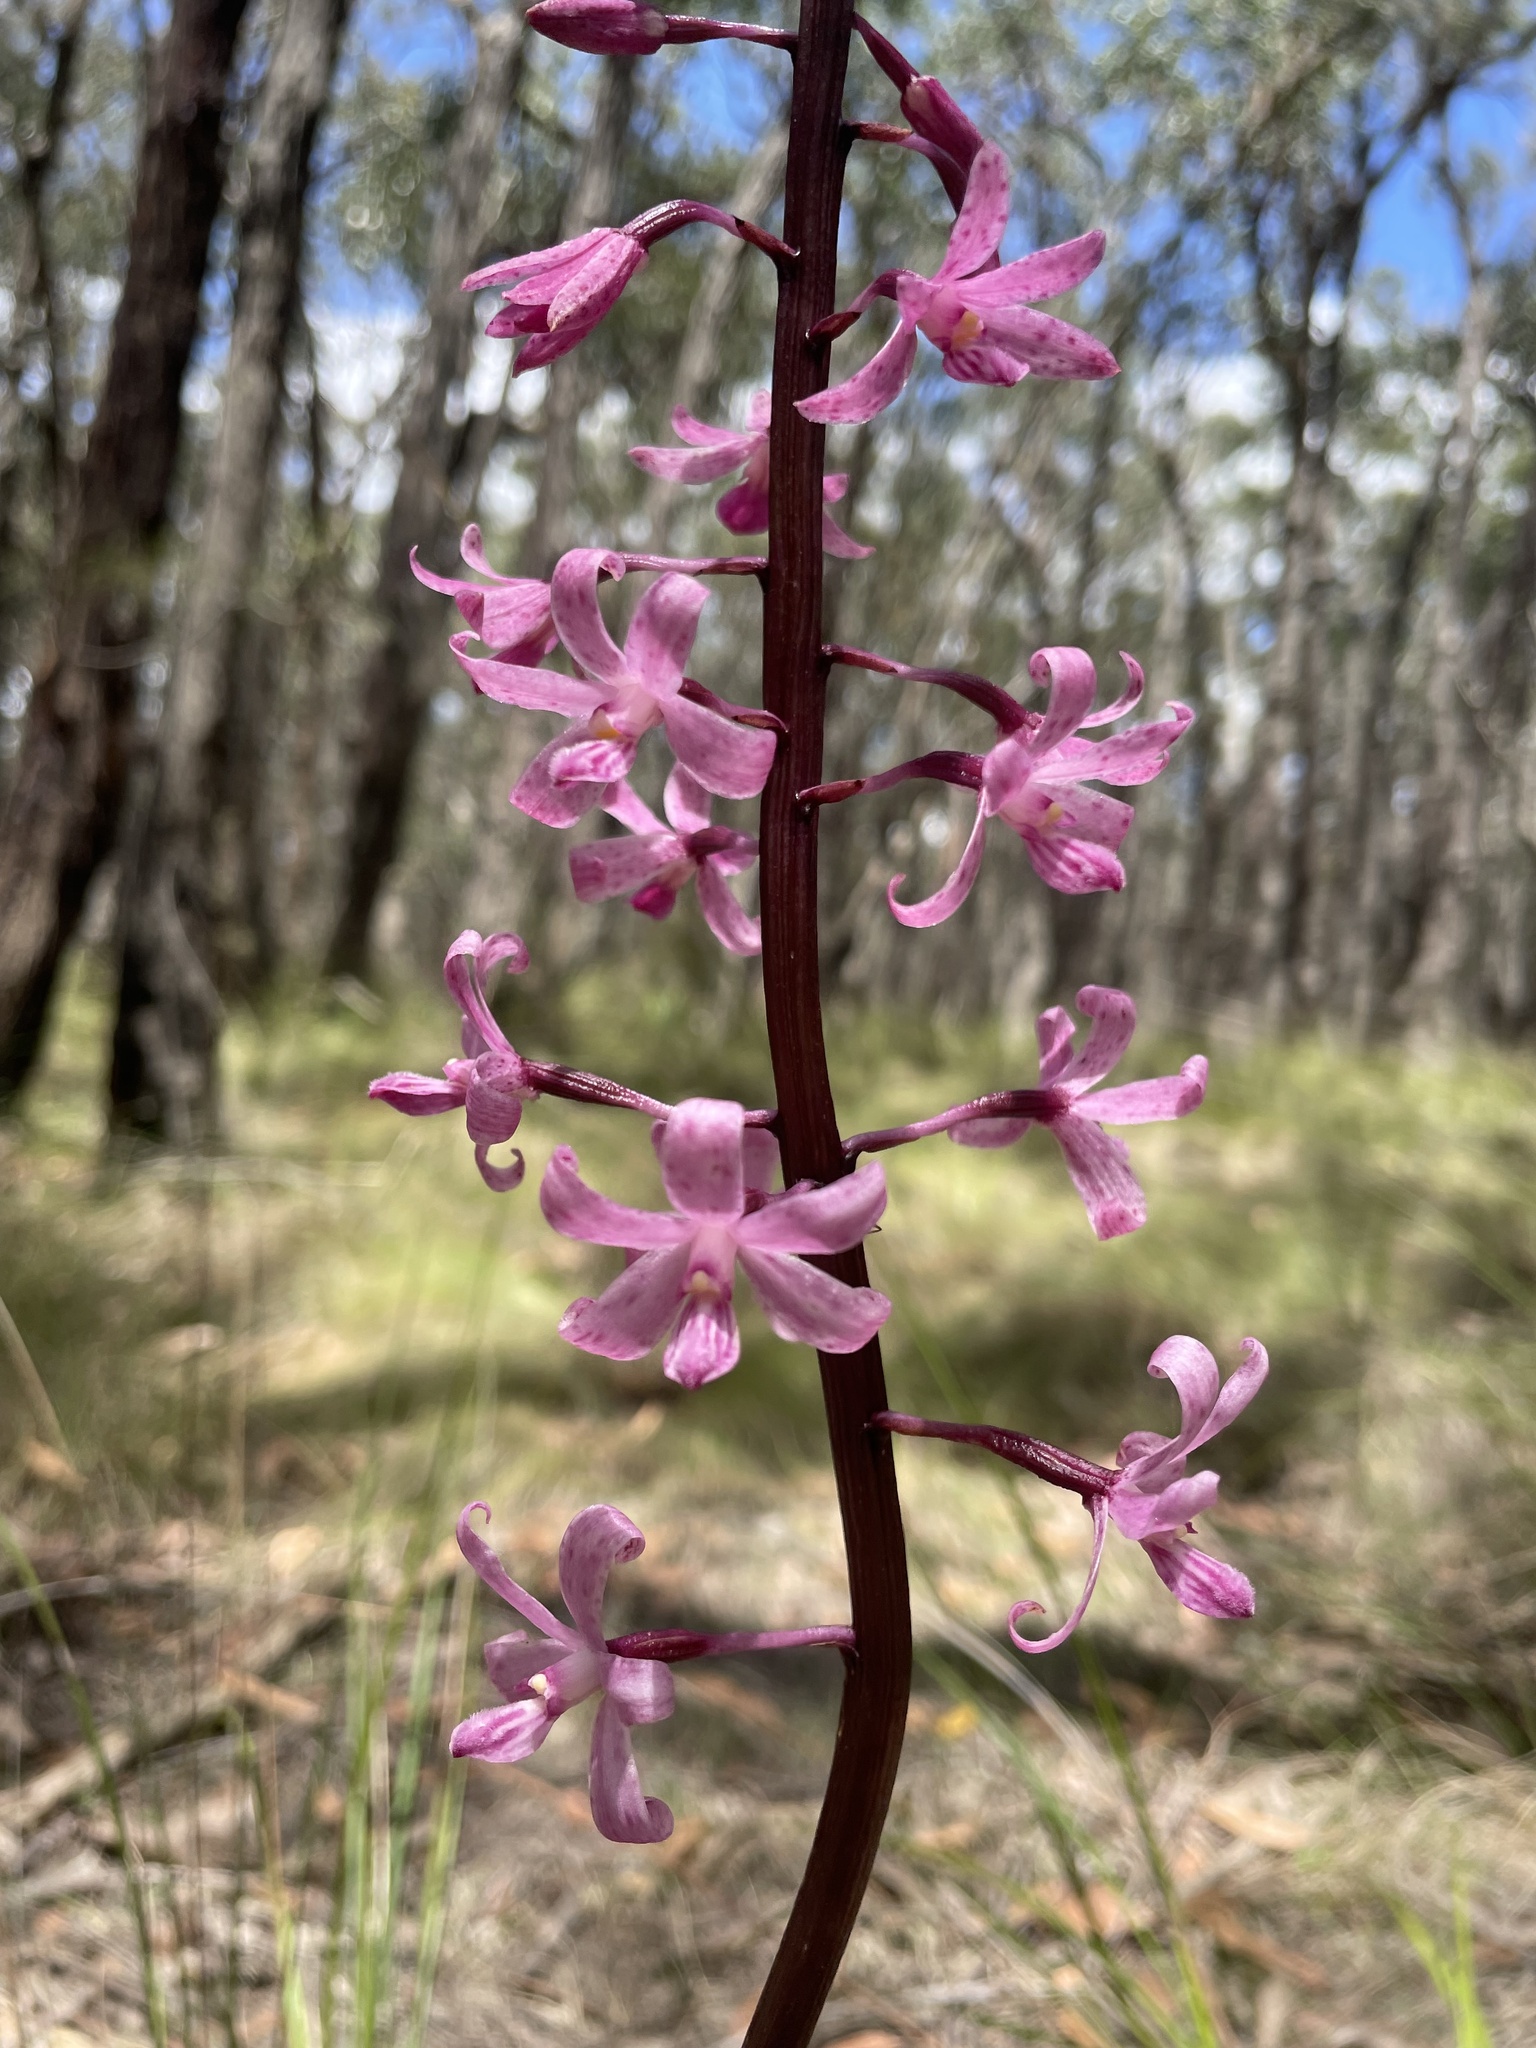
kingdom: Plantae
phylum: Tracheophyta
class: Liliopsida
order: Asparagales
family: Orchidaceae
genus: Dipodium
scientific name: Dipodium roseum
